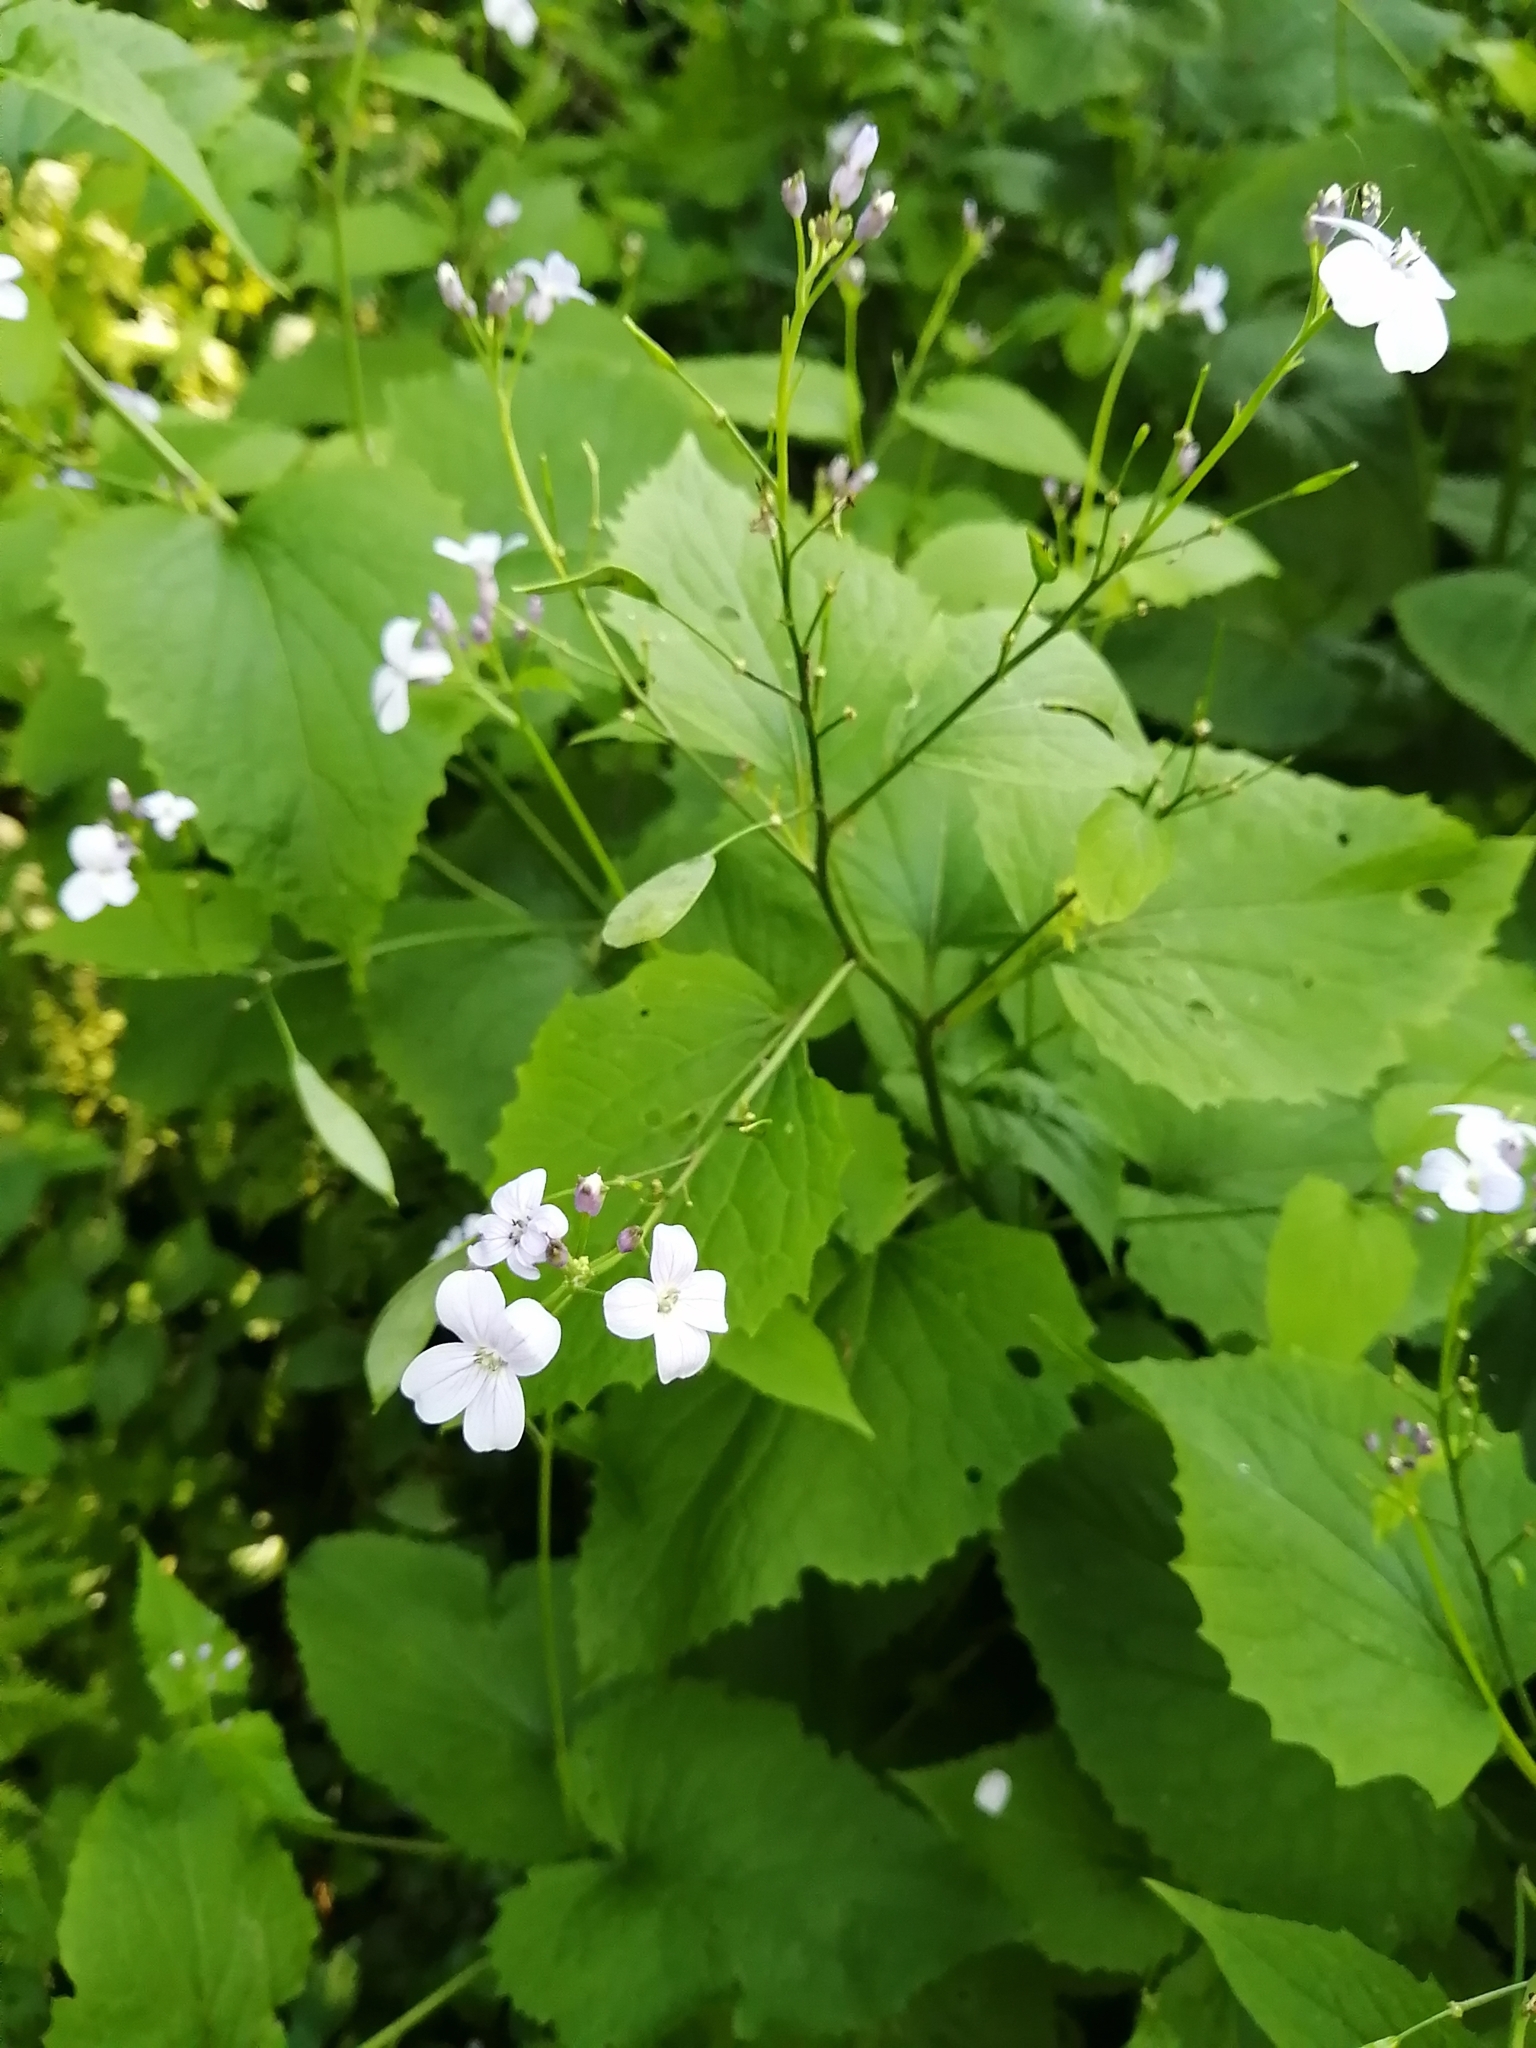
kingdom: Plantae
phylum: Tracheophyta
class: Magnoliopsida
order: Brassicales
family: Brassicaceae
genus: Lunaria
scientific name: Lunaria rediviva
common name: Perennial honesty
